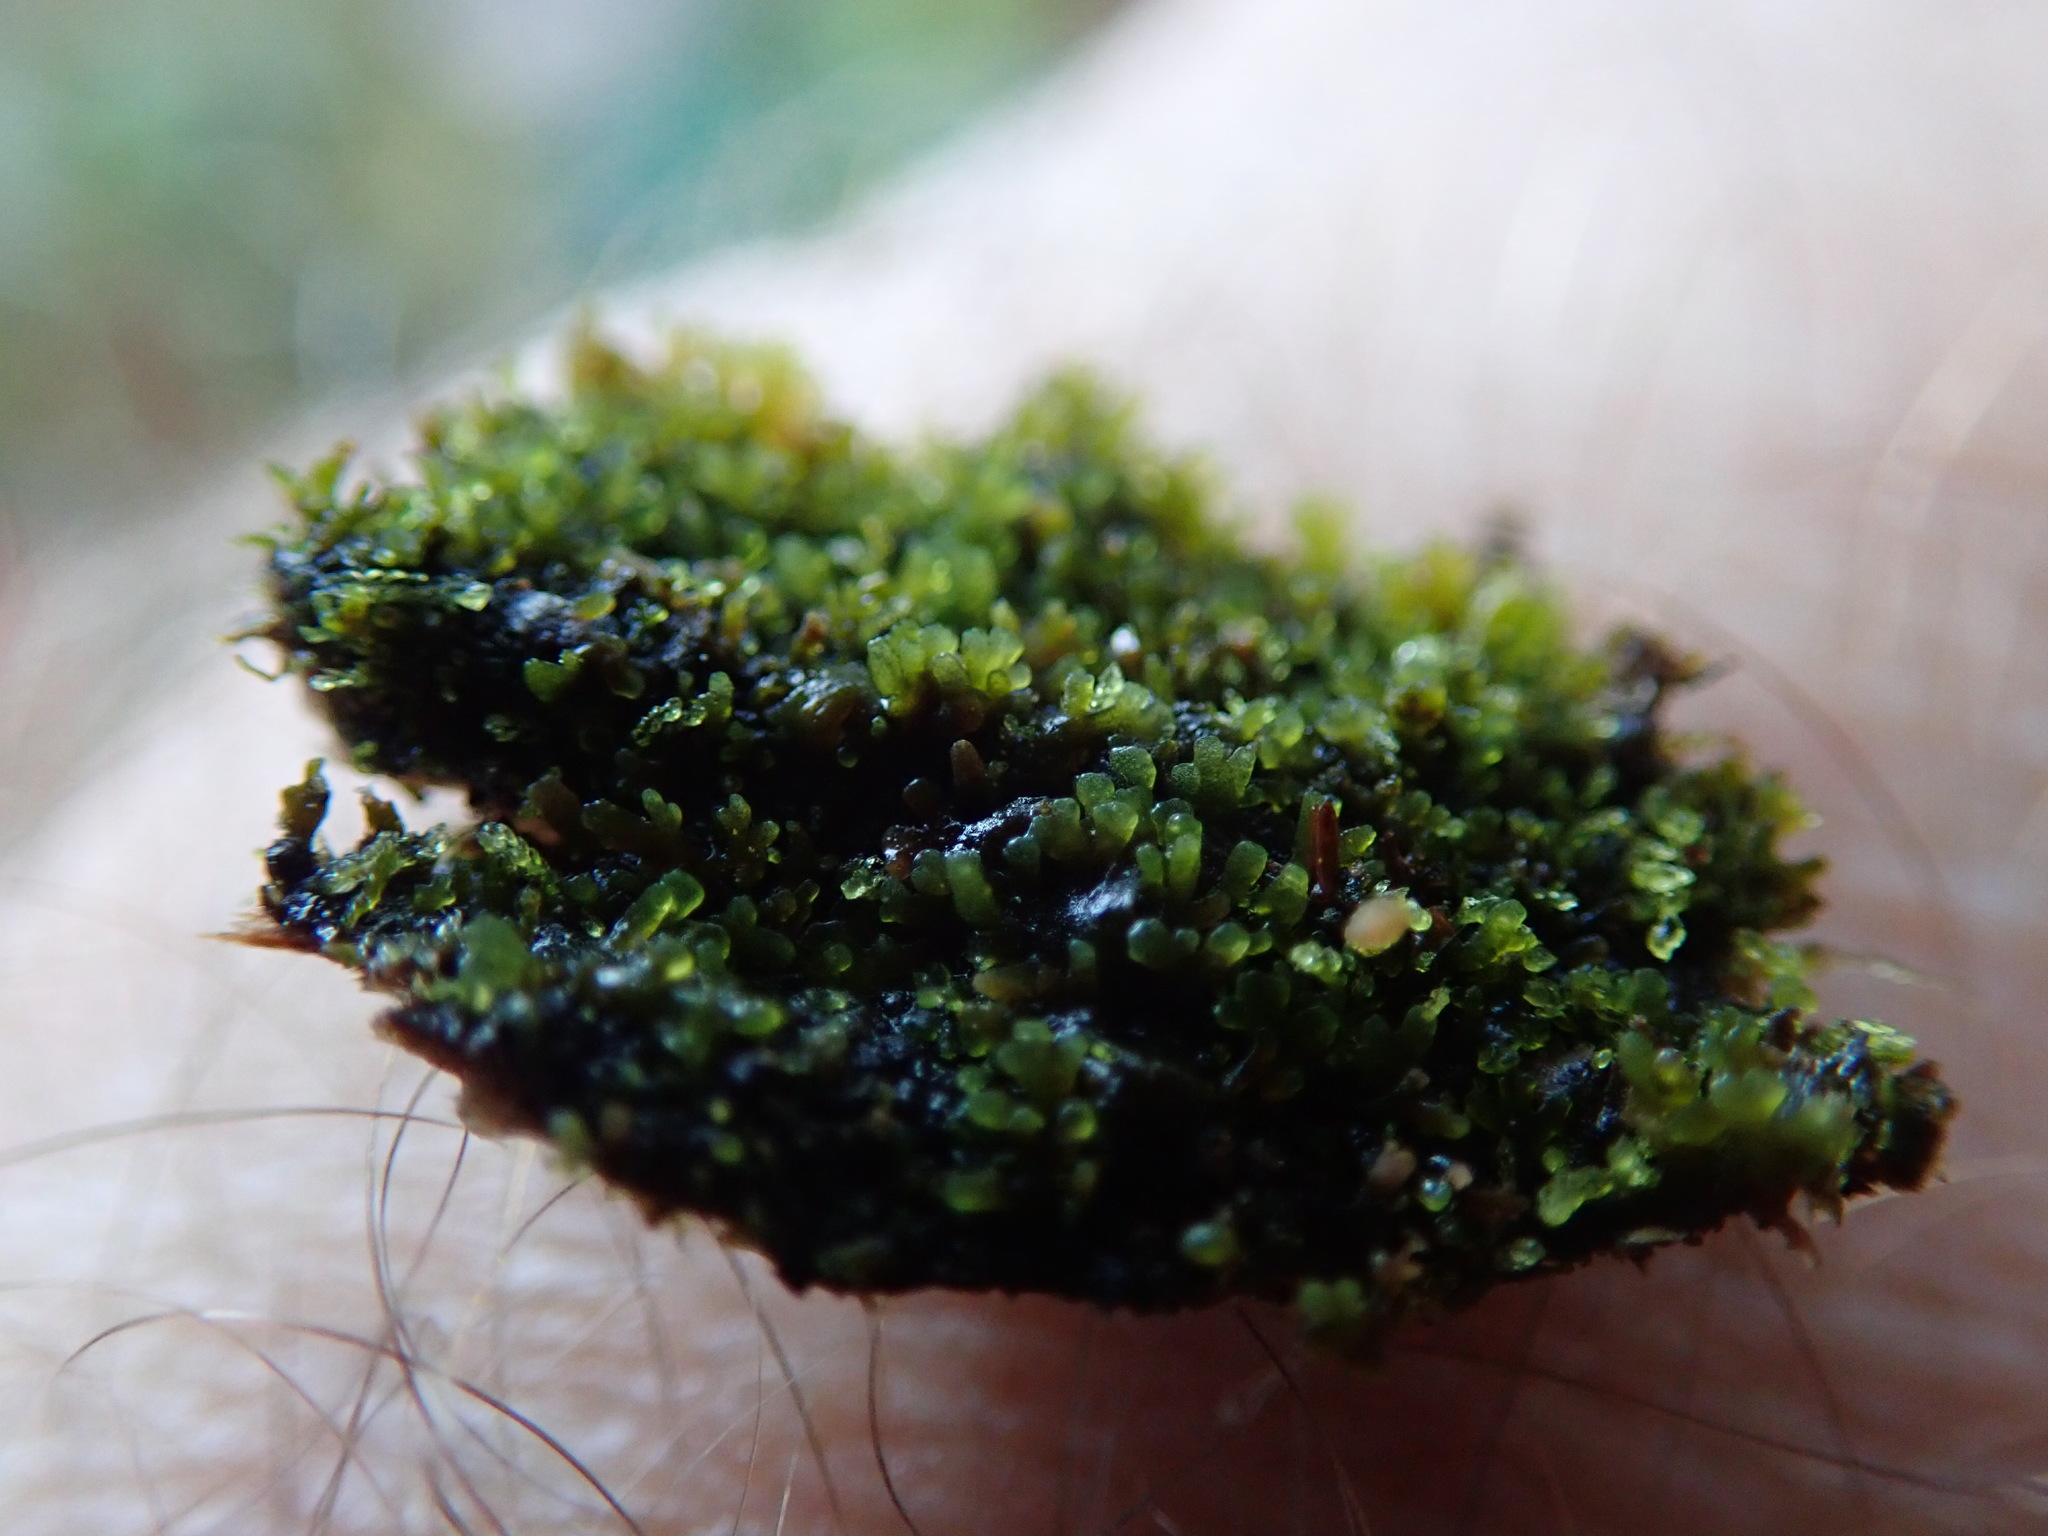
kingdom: Plantae
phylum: Marchantiophyta
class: Jungermanniopsida
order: Metzgeriales
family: Aneuraceae
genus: Riccardia
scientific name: Riccardia latifrons
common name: Bog germanderwort
